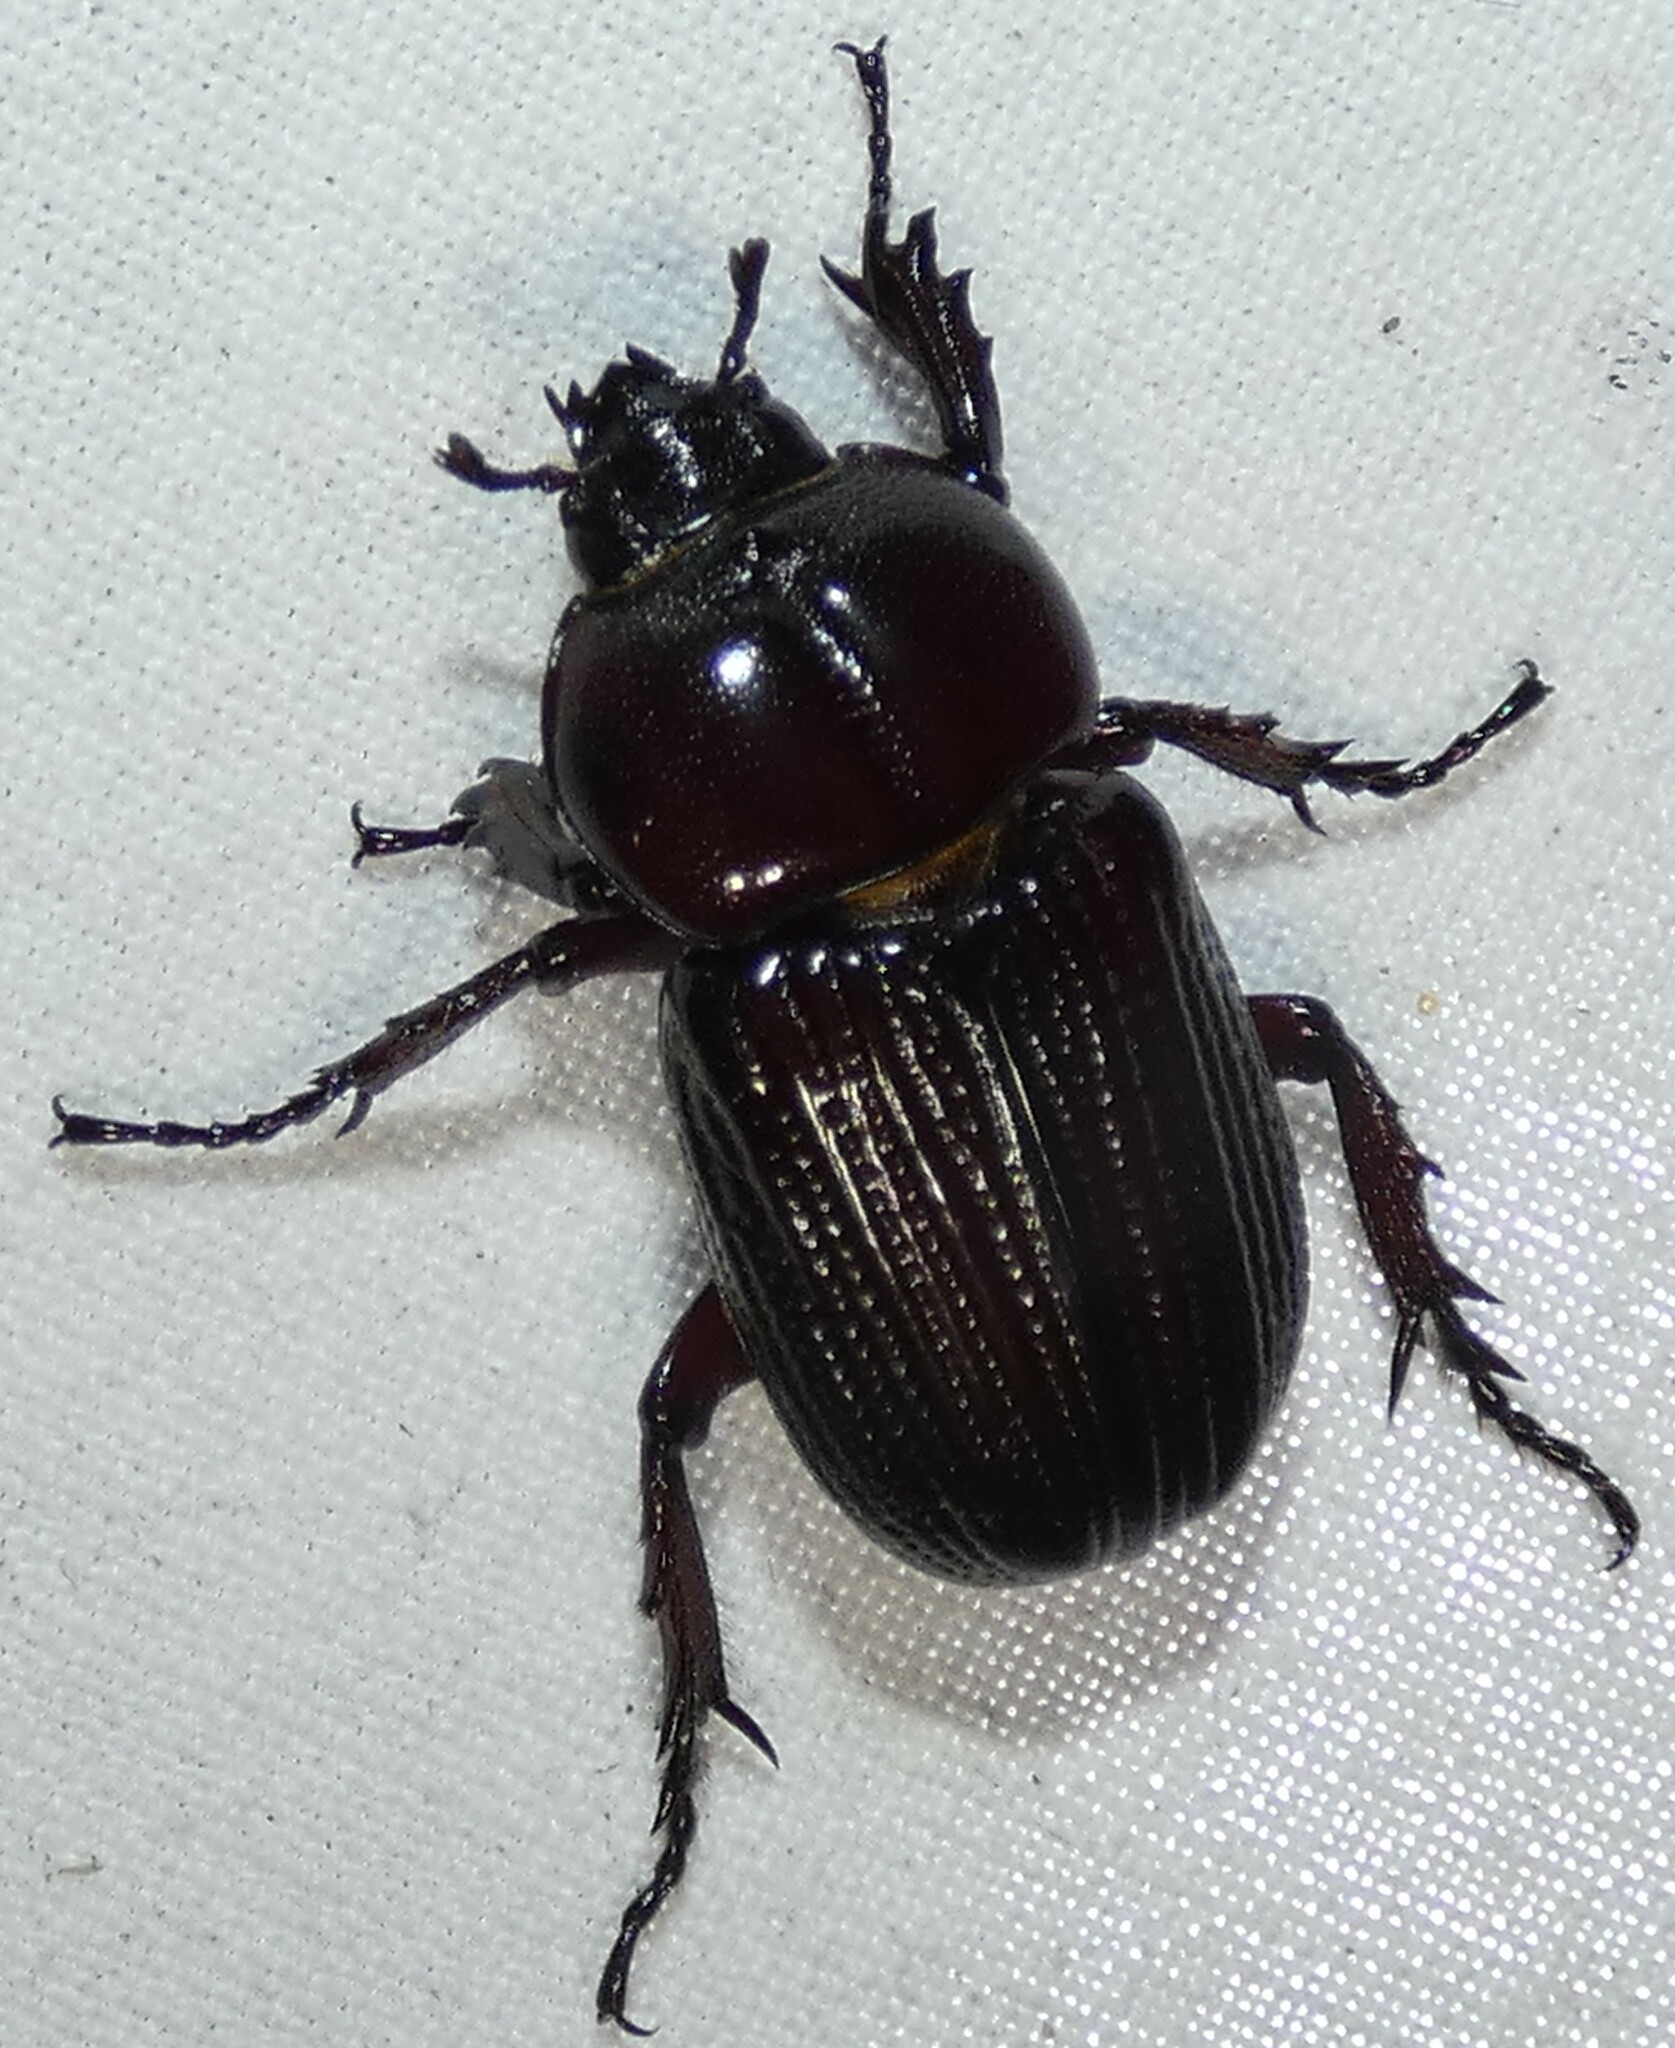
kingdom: Animalia
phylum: Arthropoda
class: Insecta
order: Coleoptera
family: Scarabaeidae
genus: Phileurus
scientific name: Phileurus valgus
